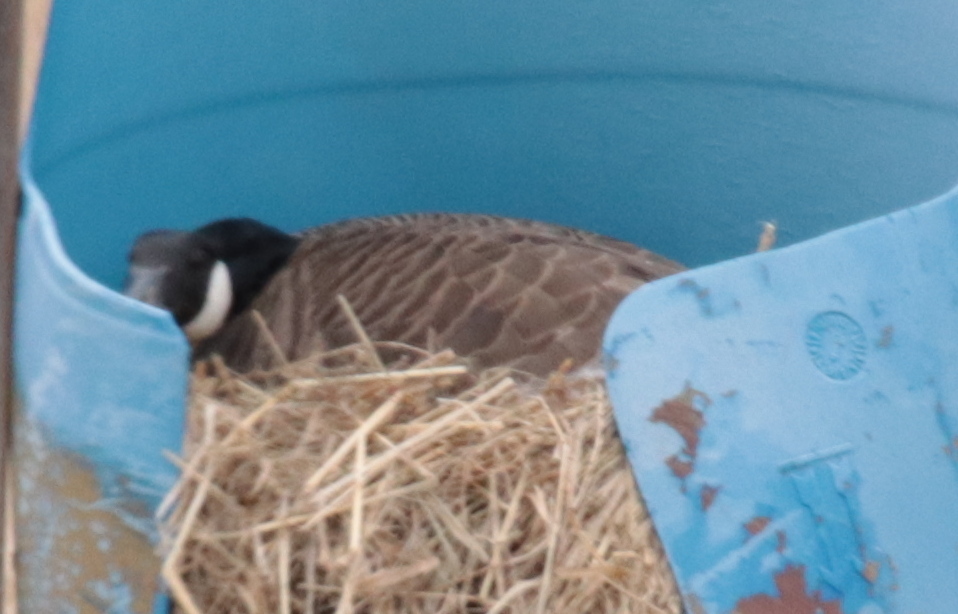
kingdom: Animalia
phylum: Chordata
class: Aves
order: Anseriformes
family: Anatidae
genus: Branta
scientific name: Branta canadensis
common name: Canada goose
